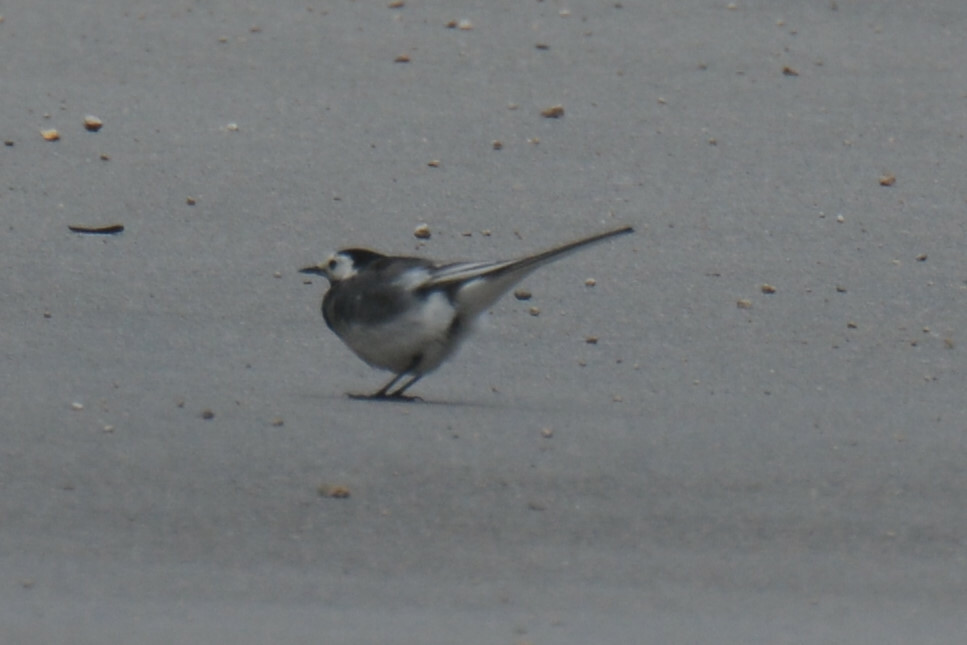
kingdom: Animalia
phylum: Chordata
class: Aves
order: Passeriformes
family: Motacillidae
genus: Motacilla
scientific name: Motacilla alba
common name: White wagtail
